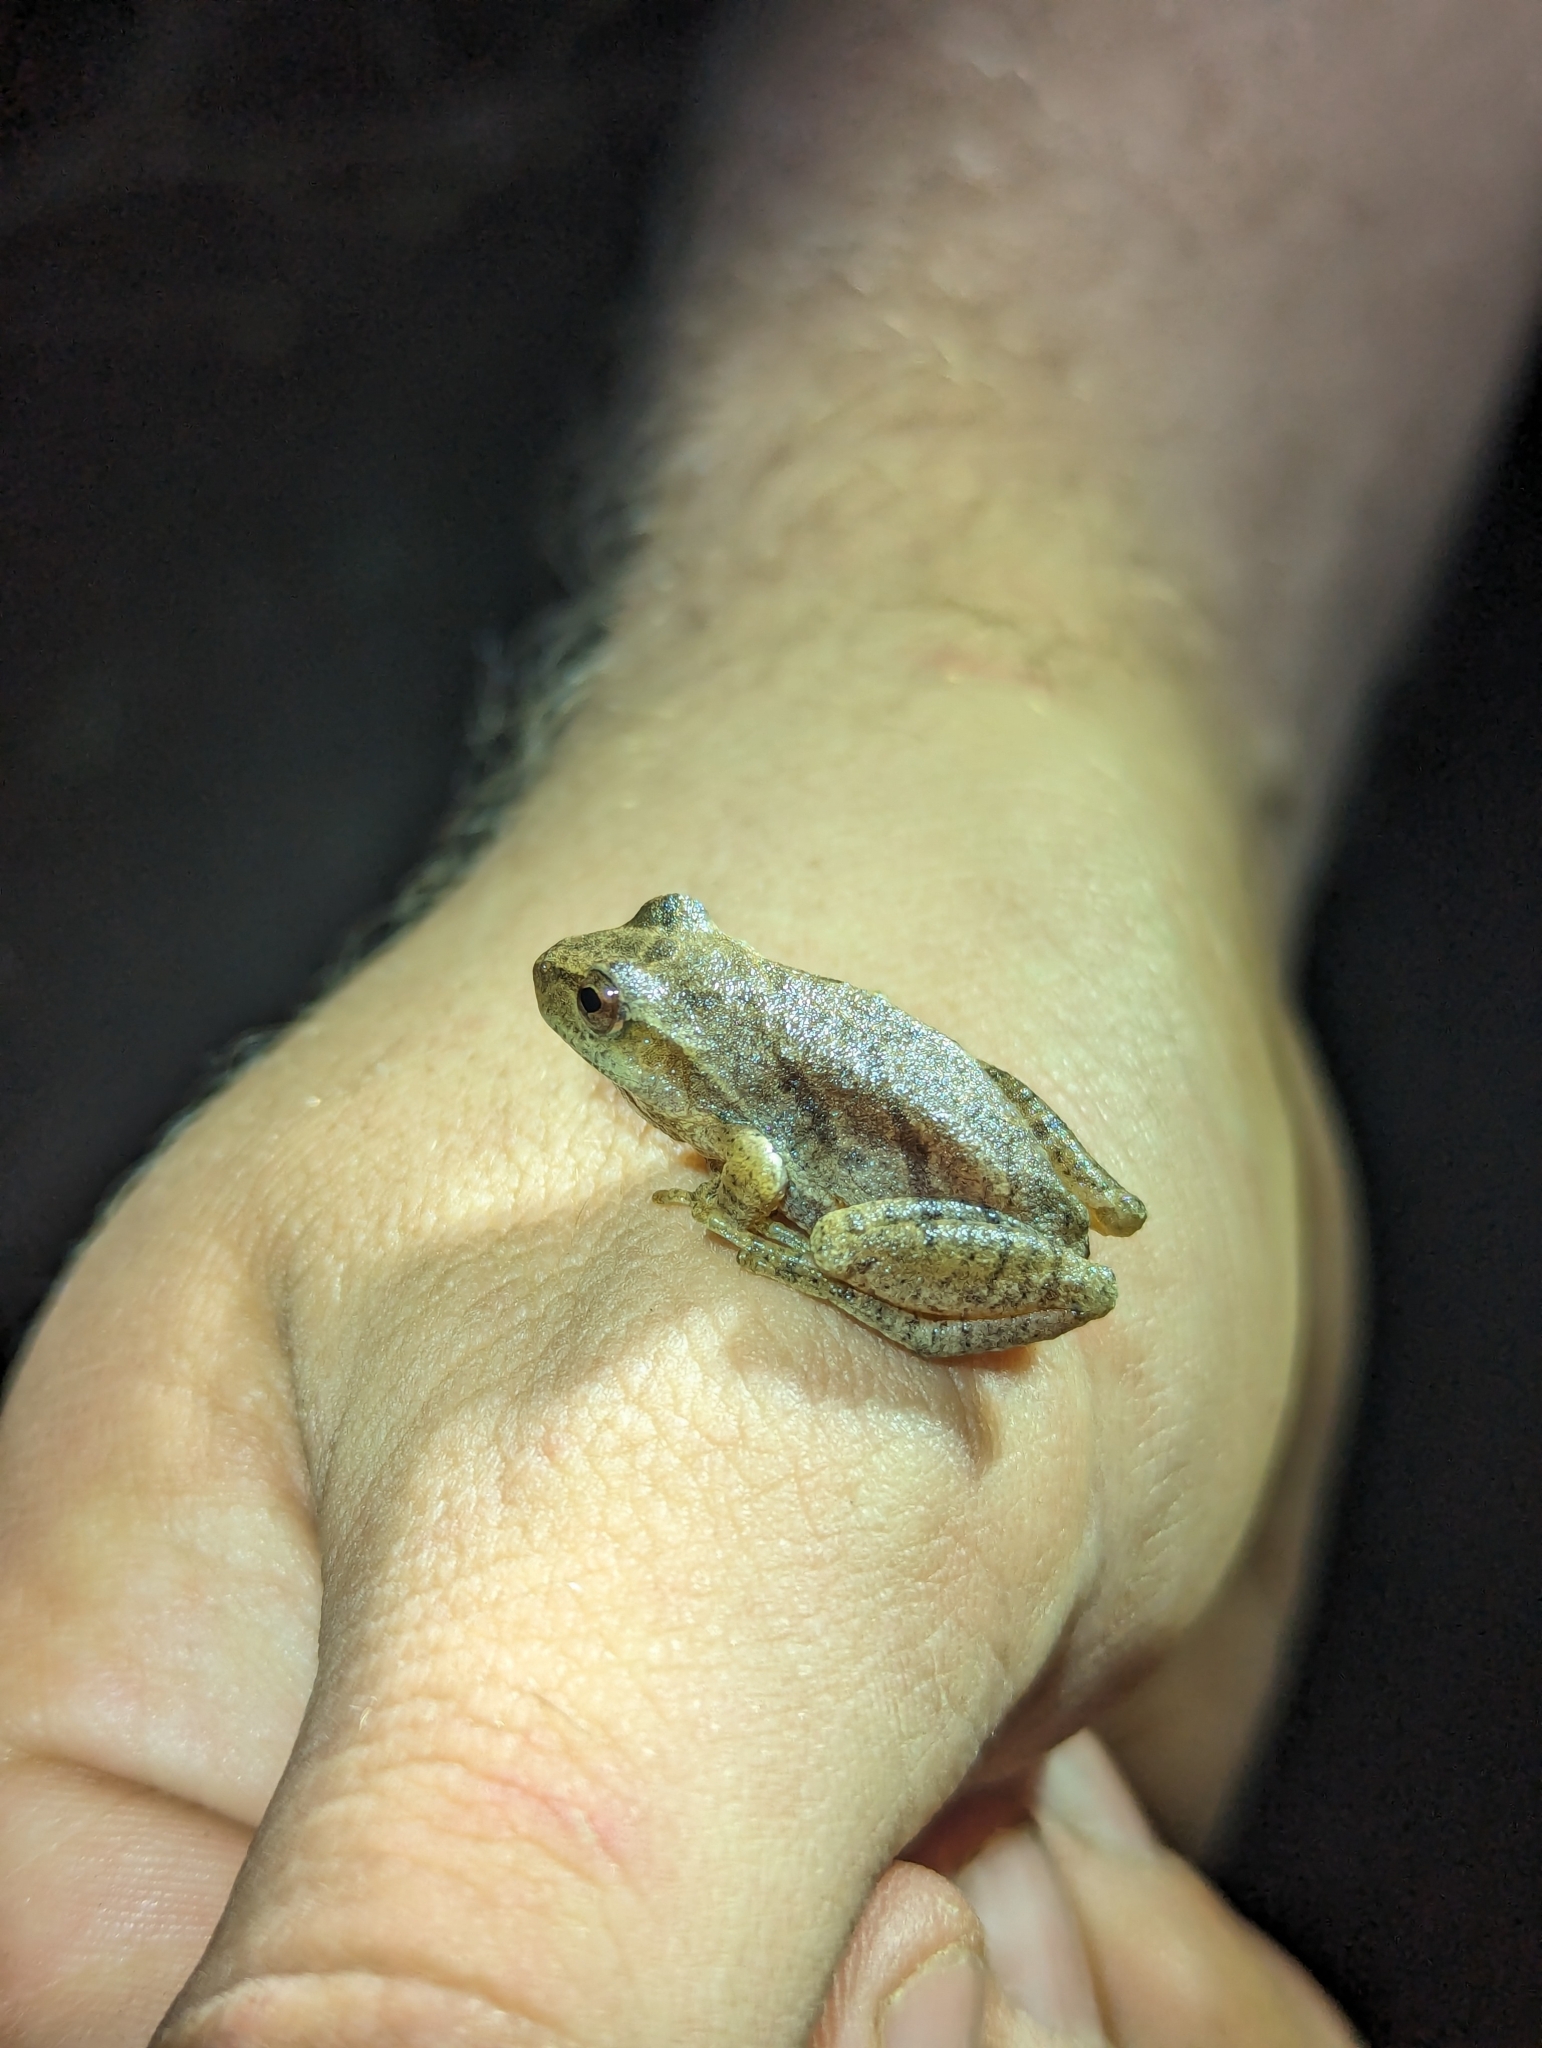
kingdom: Animalia
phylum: Chordata
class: Amphibia
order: Anura
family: Hylidae
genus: Pseudacris
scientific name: Pseudacris crucifer
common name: Spring peeper
